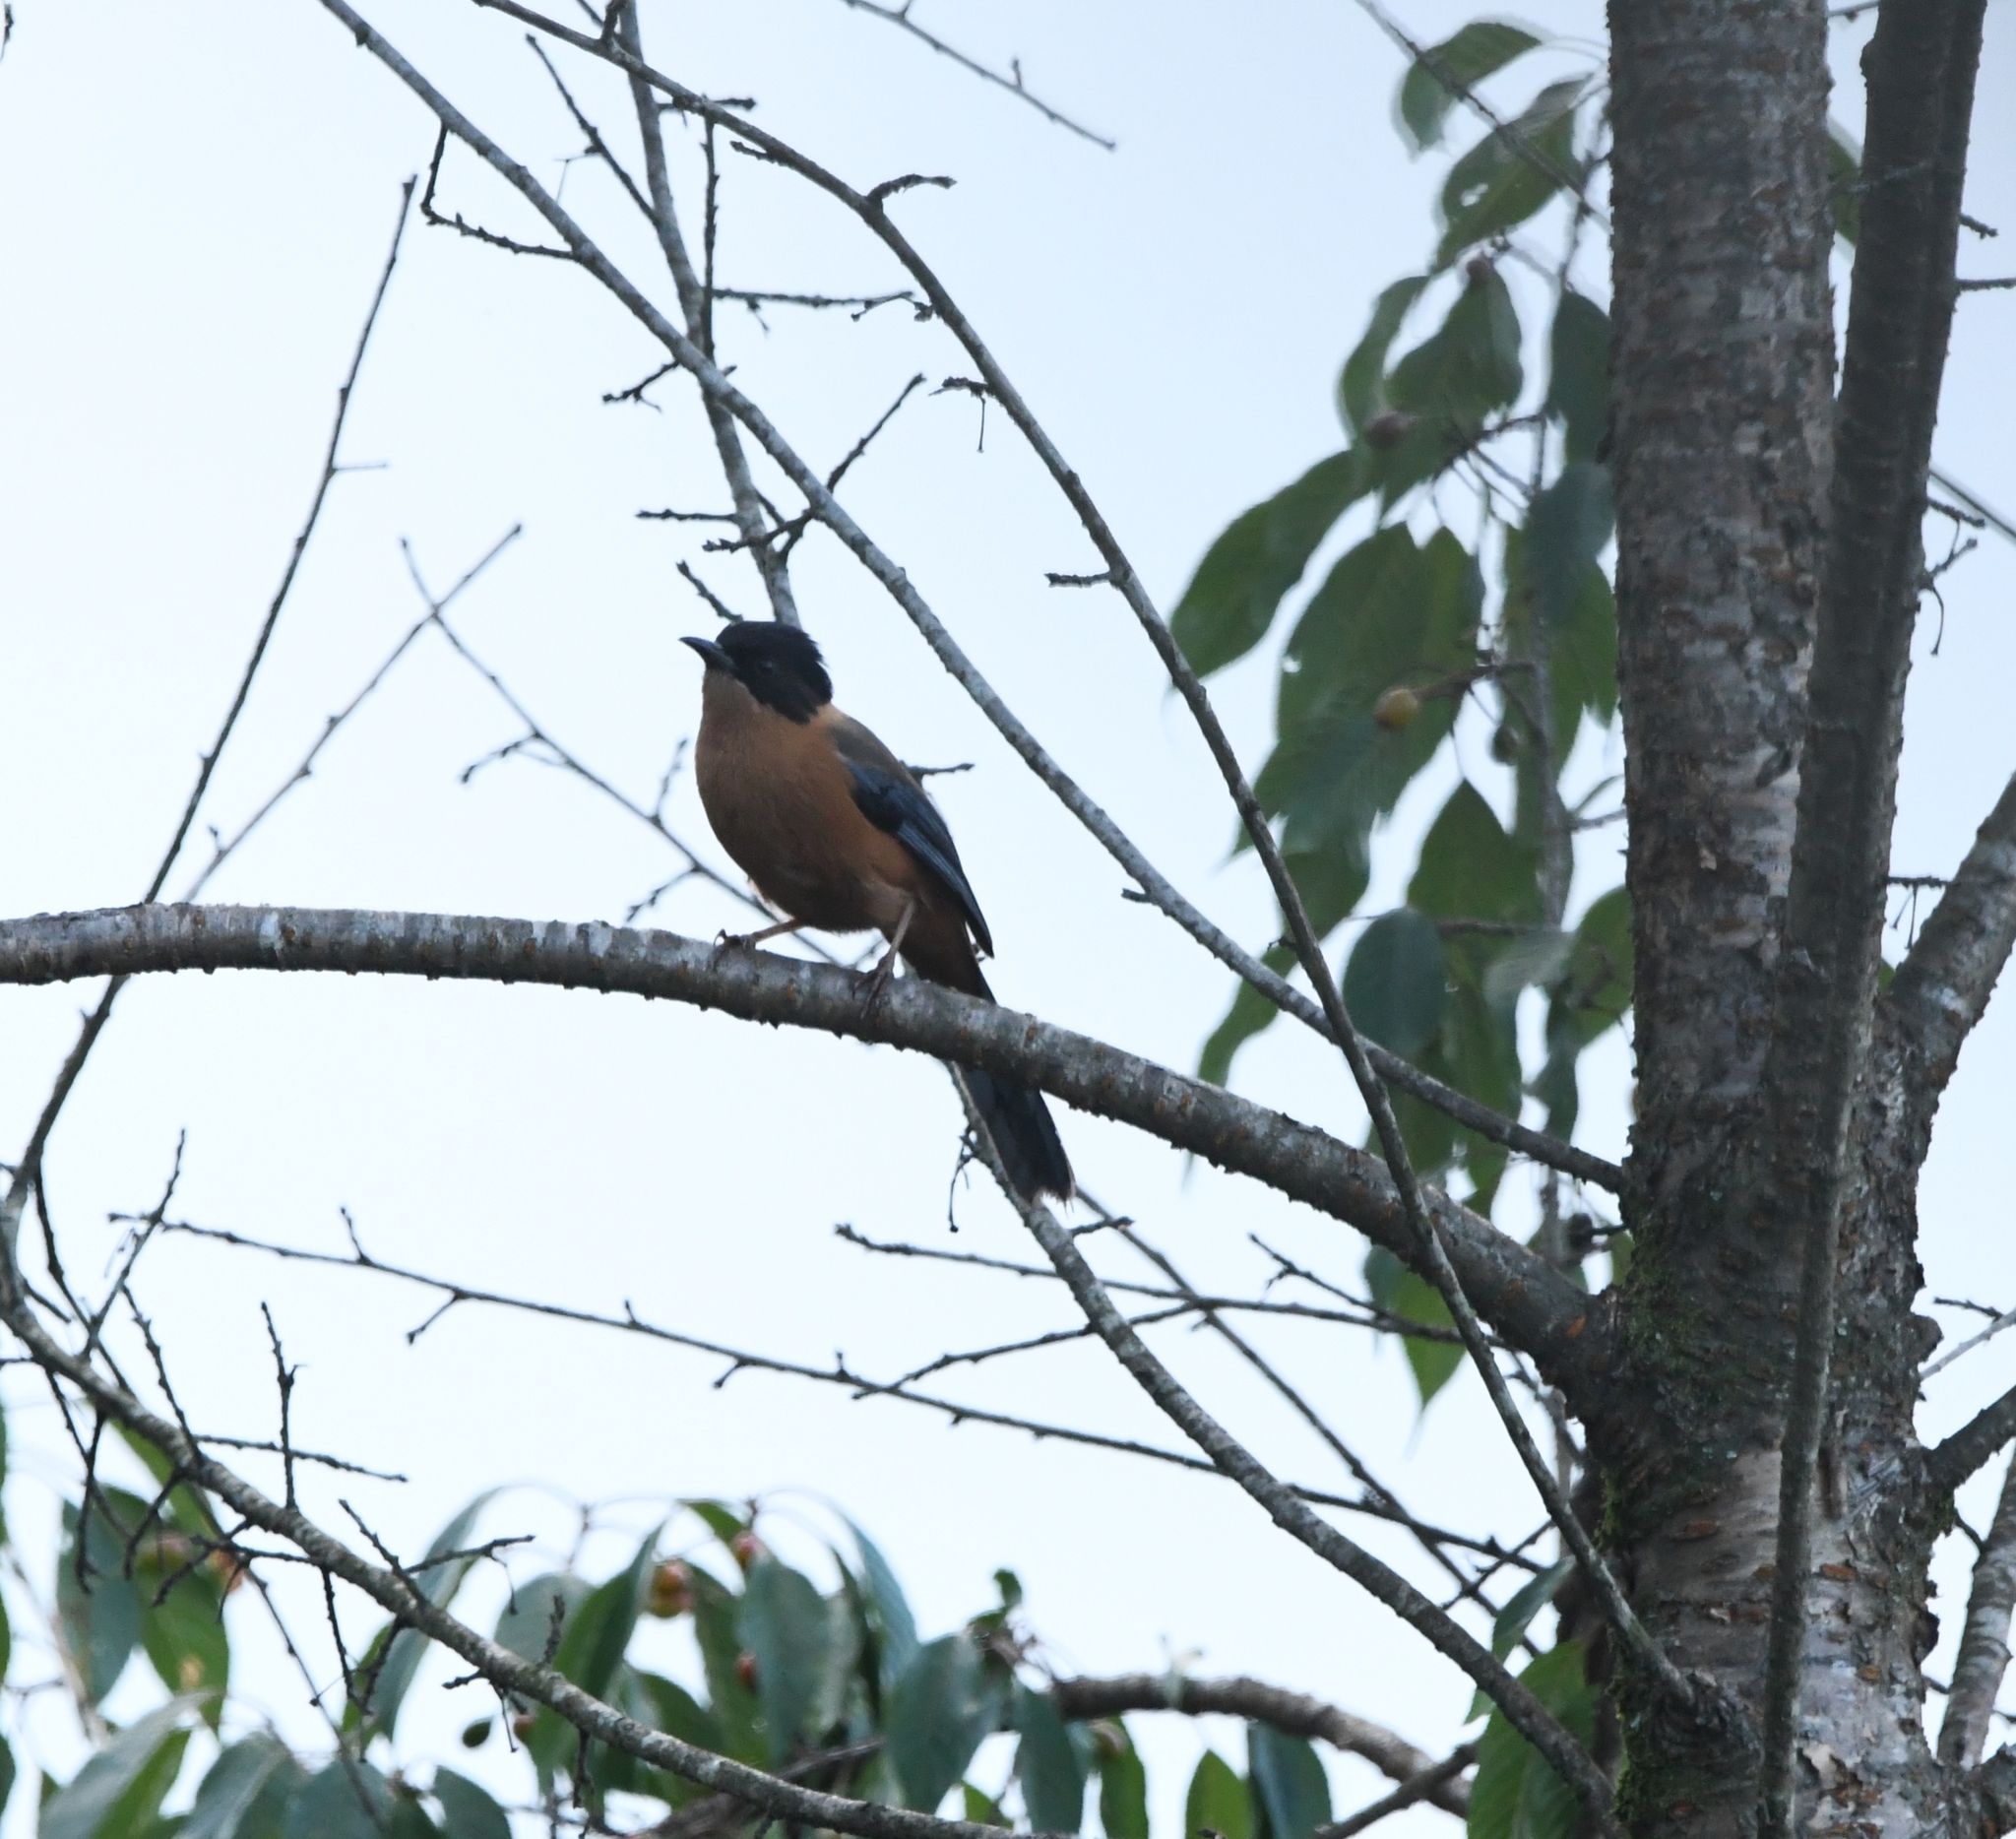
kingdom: Animalia
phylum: Chordata
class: Aves
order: Passeriformes
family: Leiothrichidae
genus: Heterophasia
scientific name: Heterophasia capistrata
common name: Rufous sibia
